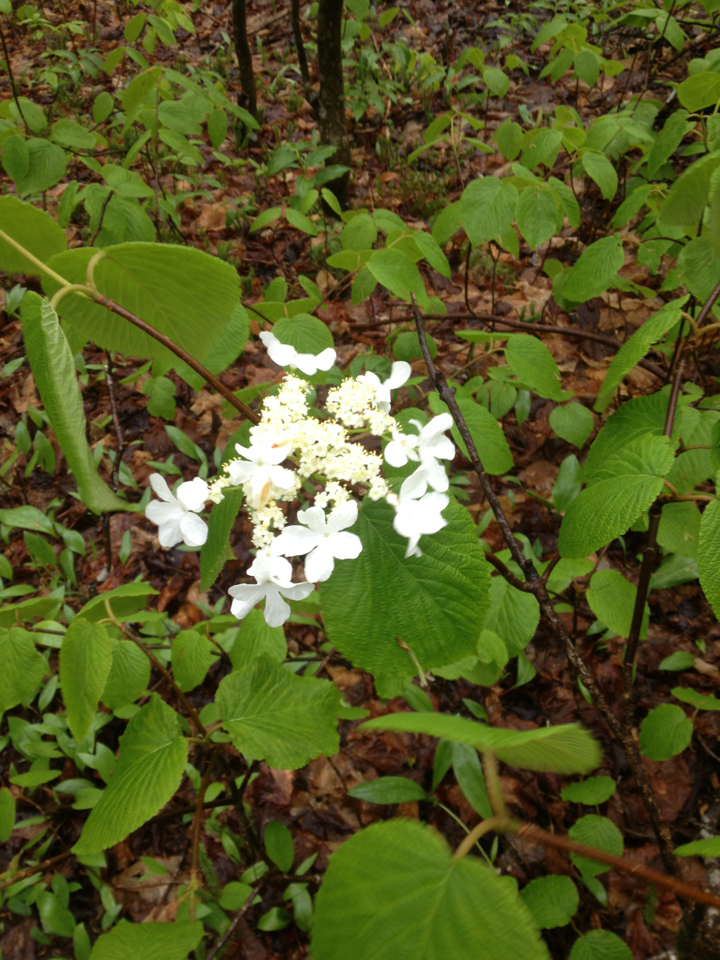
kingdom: Plantae
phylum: Tracheophyta
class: Magnoliopsida
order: Dipsacales
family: Viburnaceae
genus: Viburnum
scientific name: Viburnum lantanoides
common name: Hobblebush
